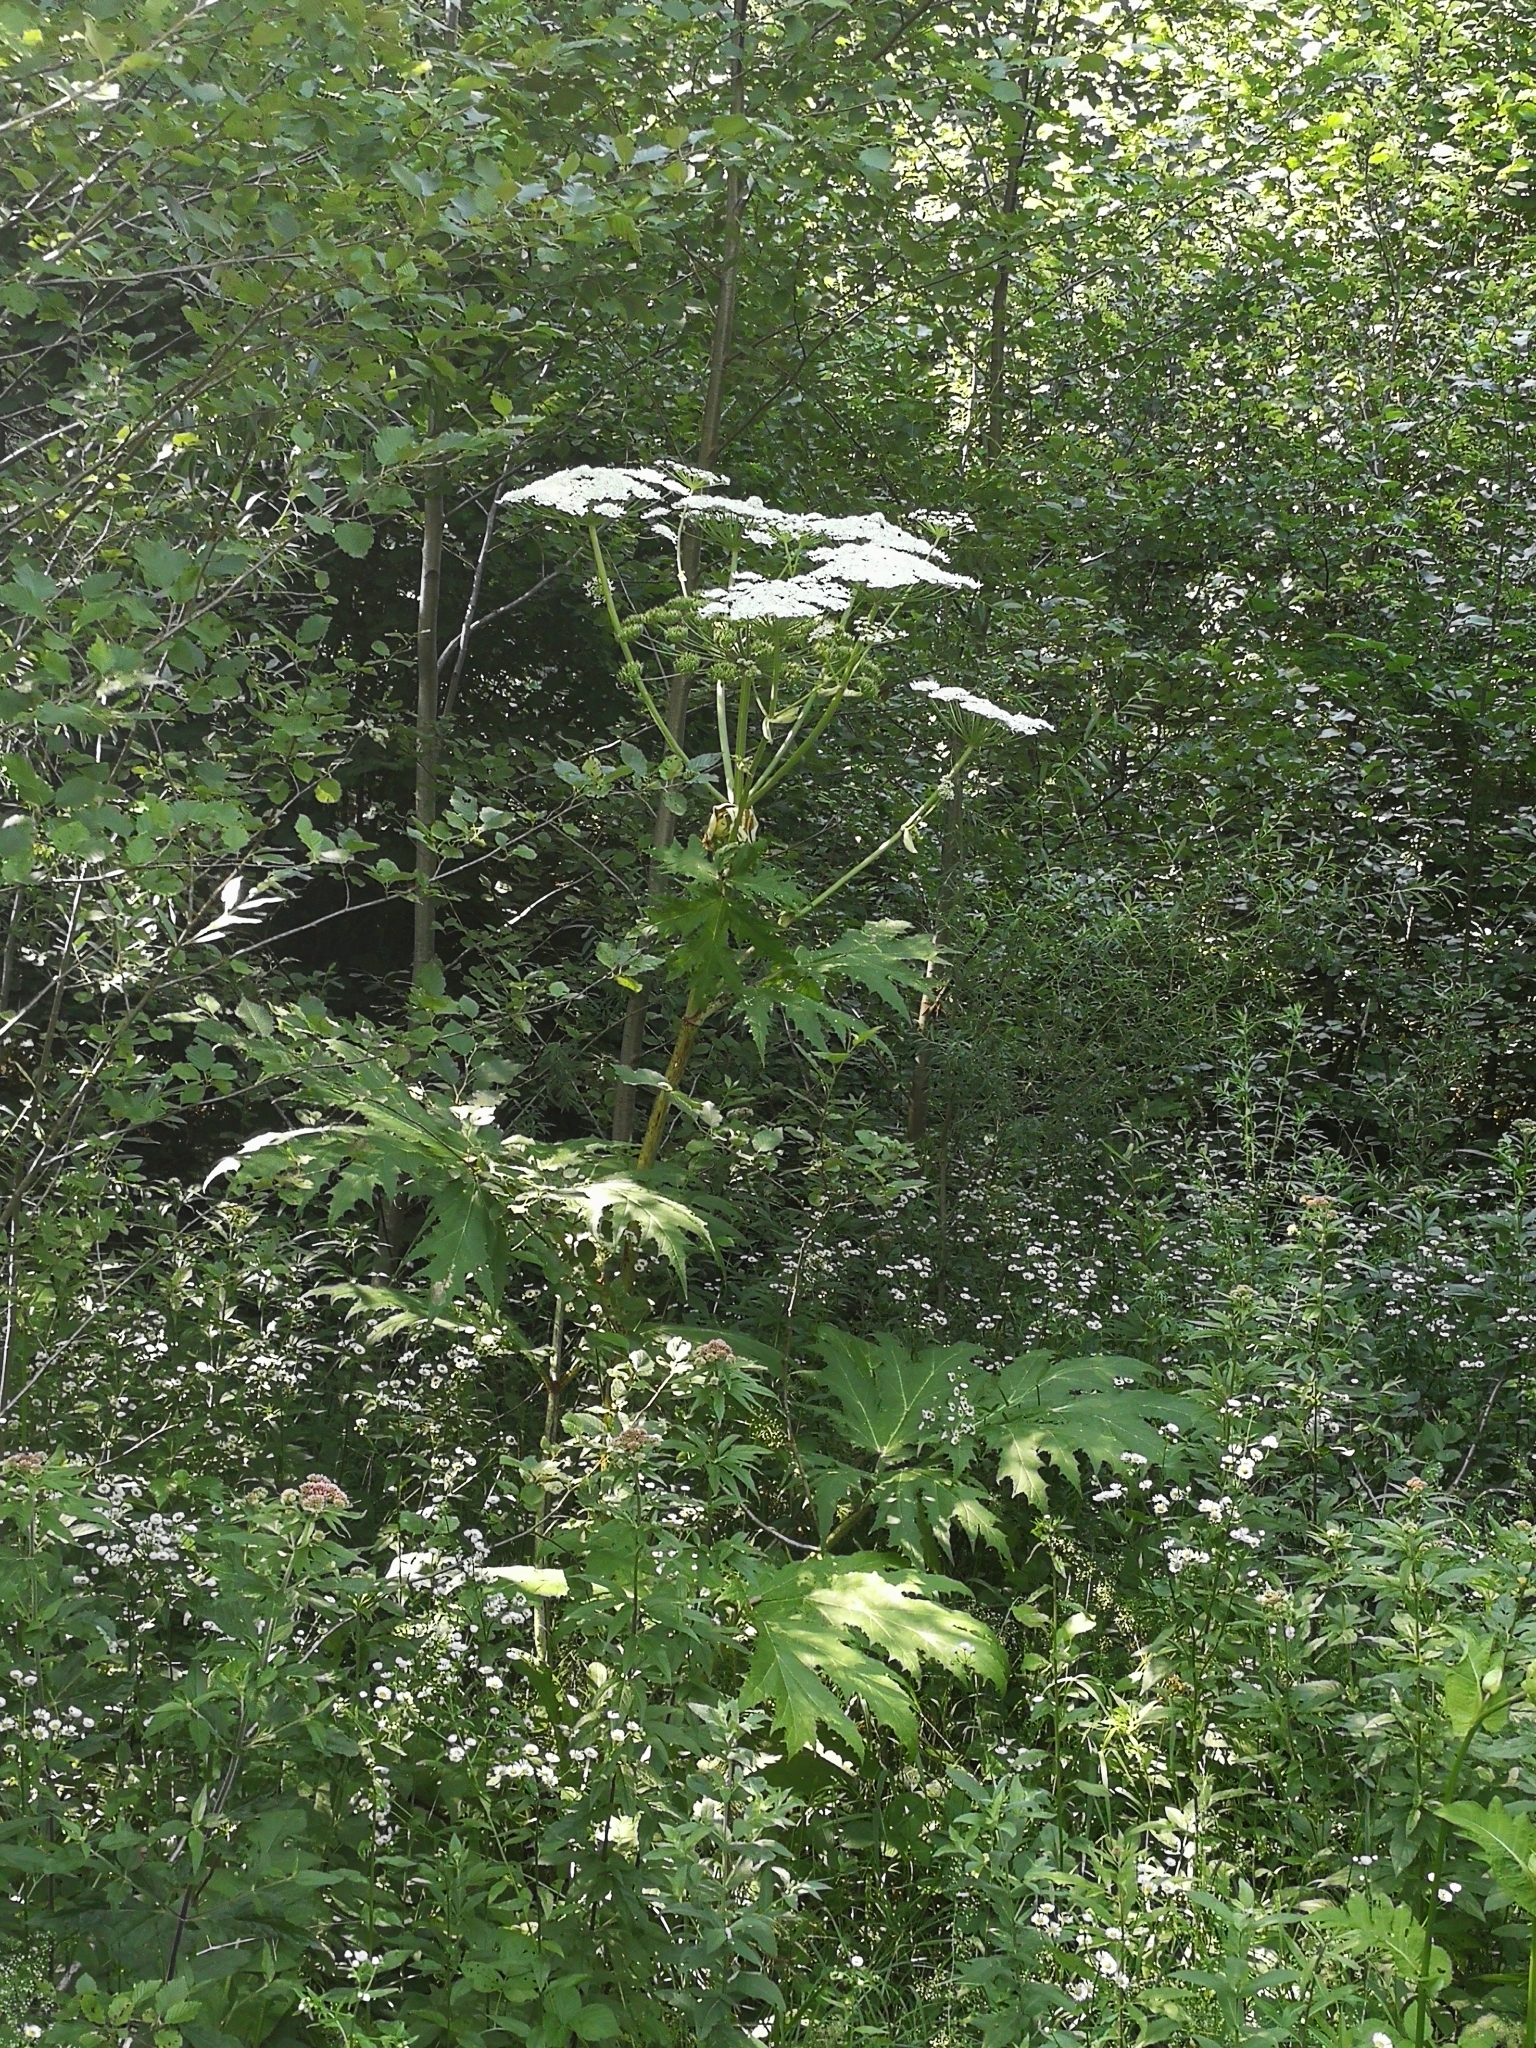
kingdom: Plantae
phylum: Tracheophyta
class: Magnoliopsida
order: Apiales
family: Apiaceae
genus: Heracleum
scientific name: Heracleum mantegazzianum
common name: Giant hogweed
